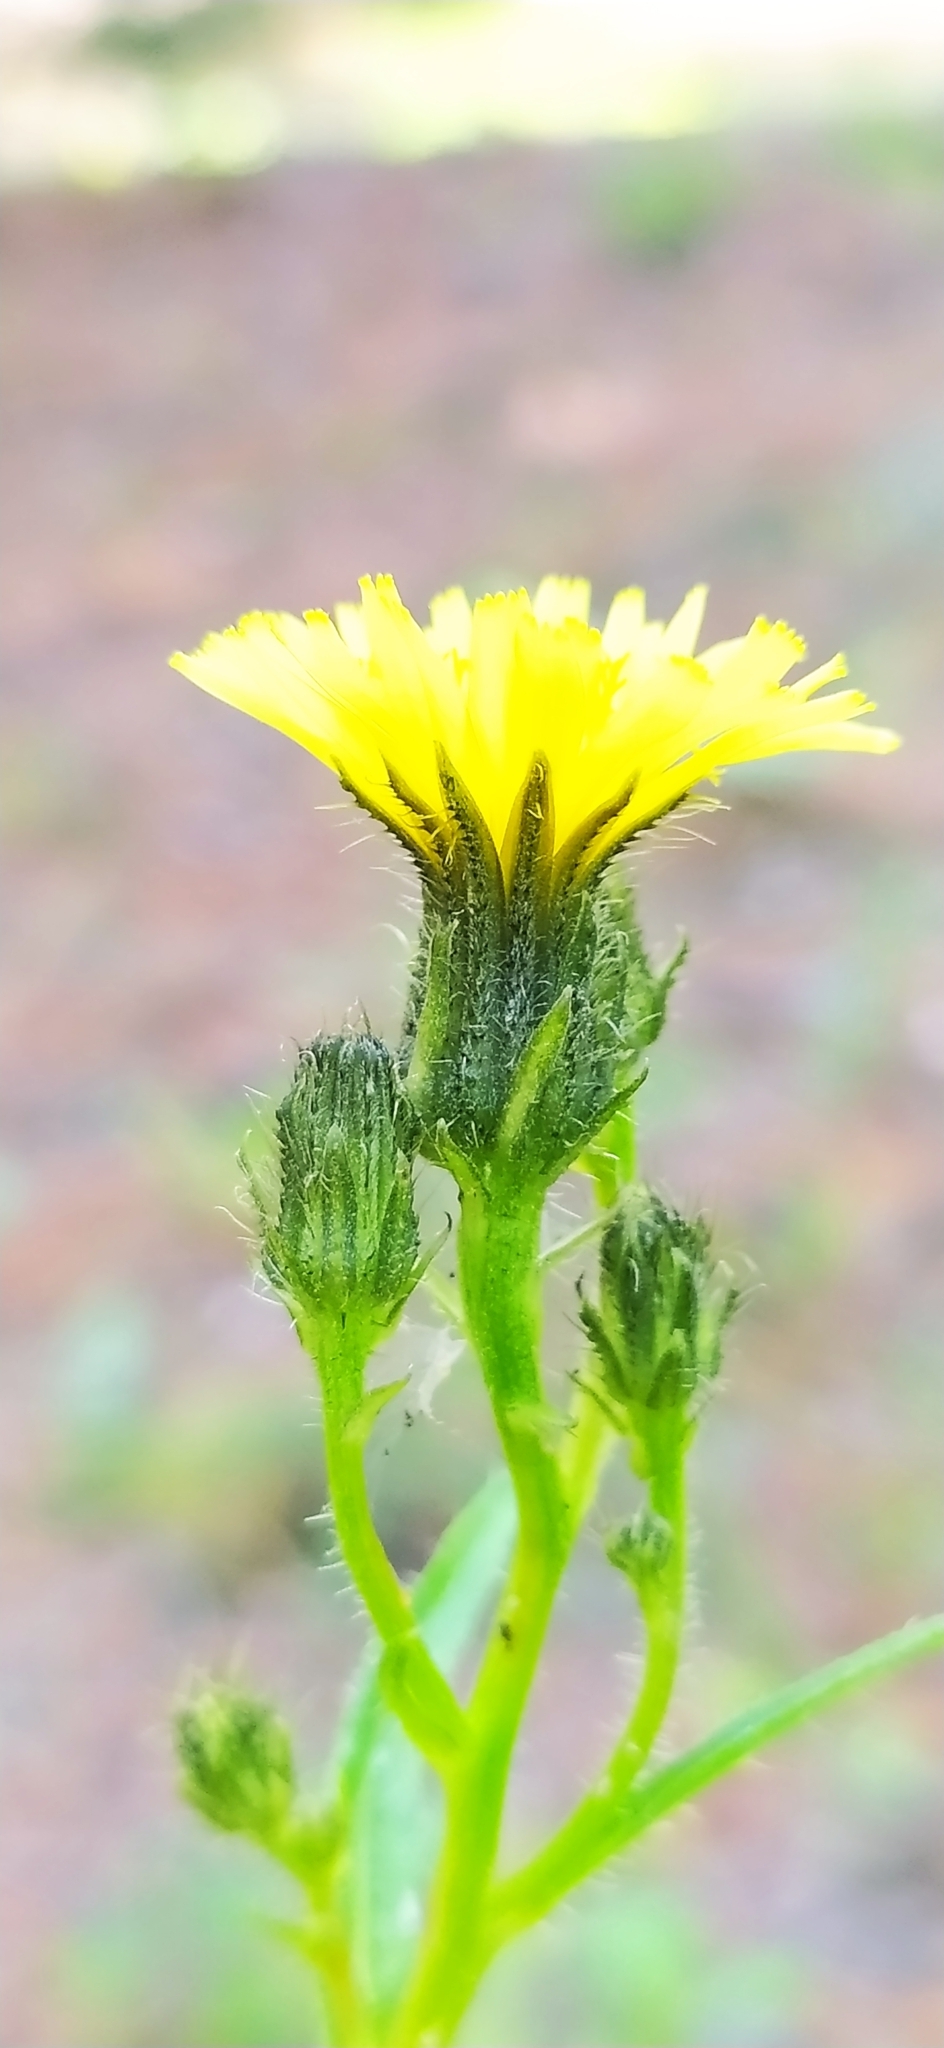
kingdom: Plantae
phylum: Tracheophyta
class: Magnoliopsida
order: Asterales
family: Asteraceae
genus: Picris
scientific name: Picris hieracioides
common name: Hawkweed oxtongue
